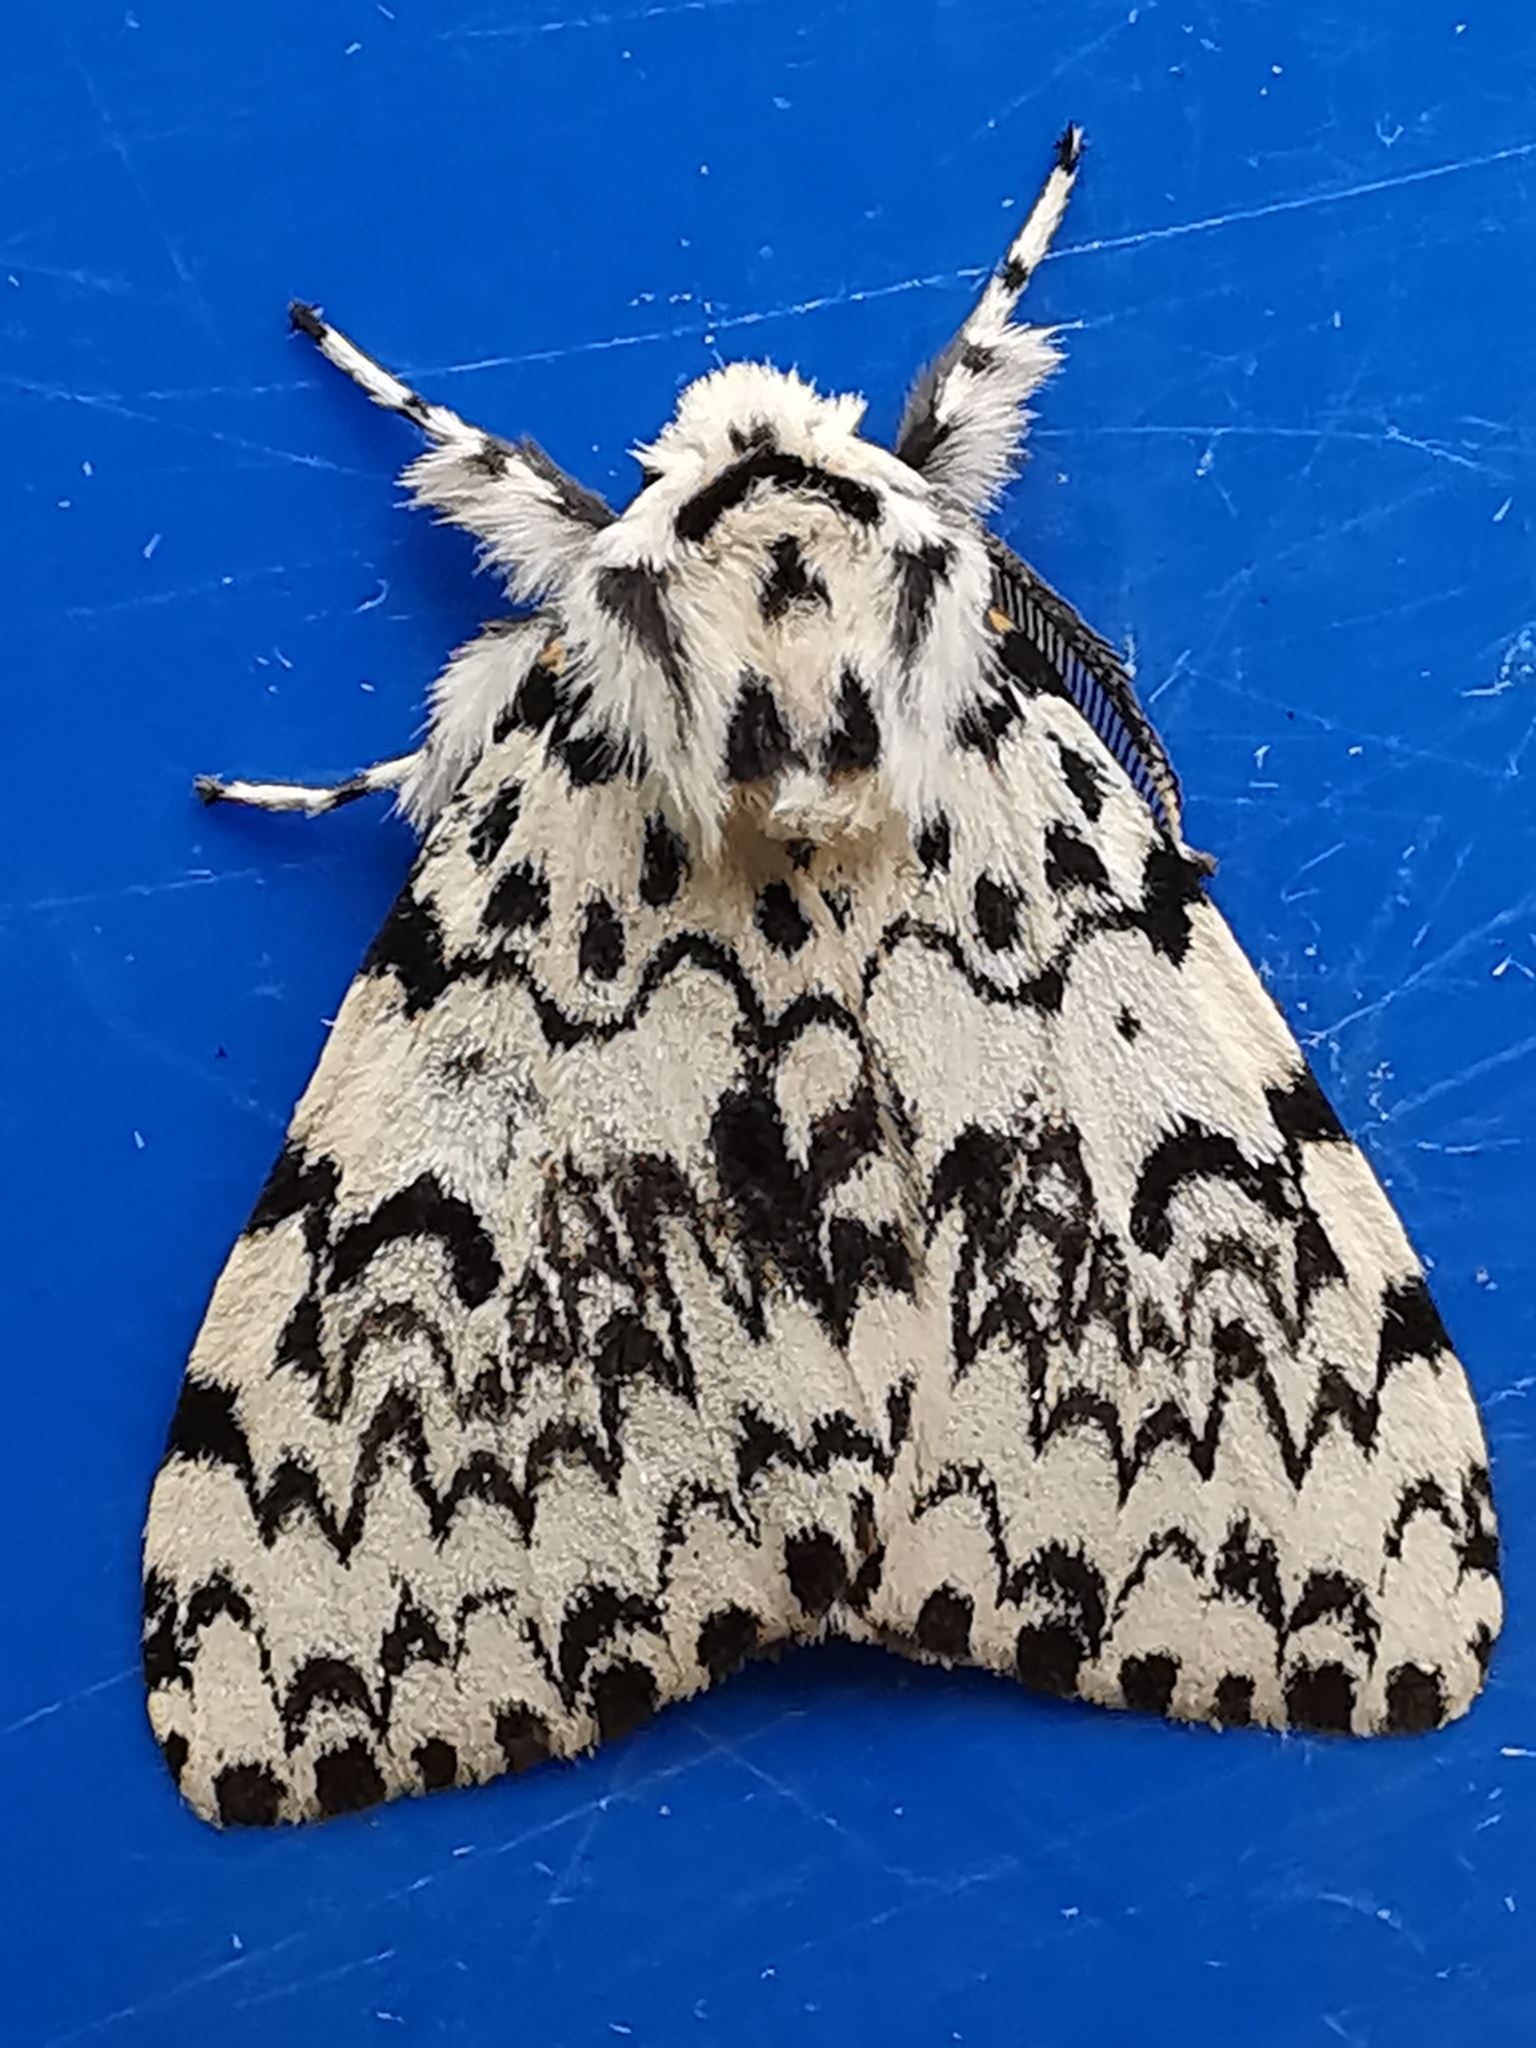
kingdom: Animalia
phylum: Arthropoda
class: Insecta
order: Lepidoptera
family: Erebidae
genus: Lymantria
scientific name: Lymantria monacha
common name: Black arches
